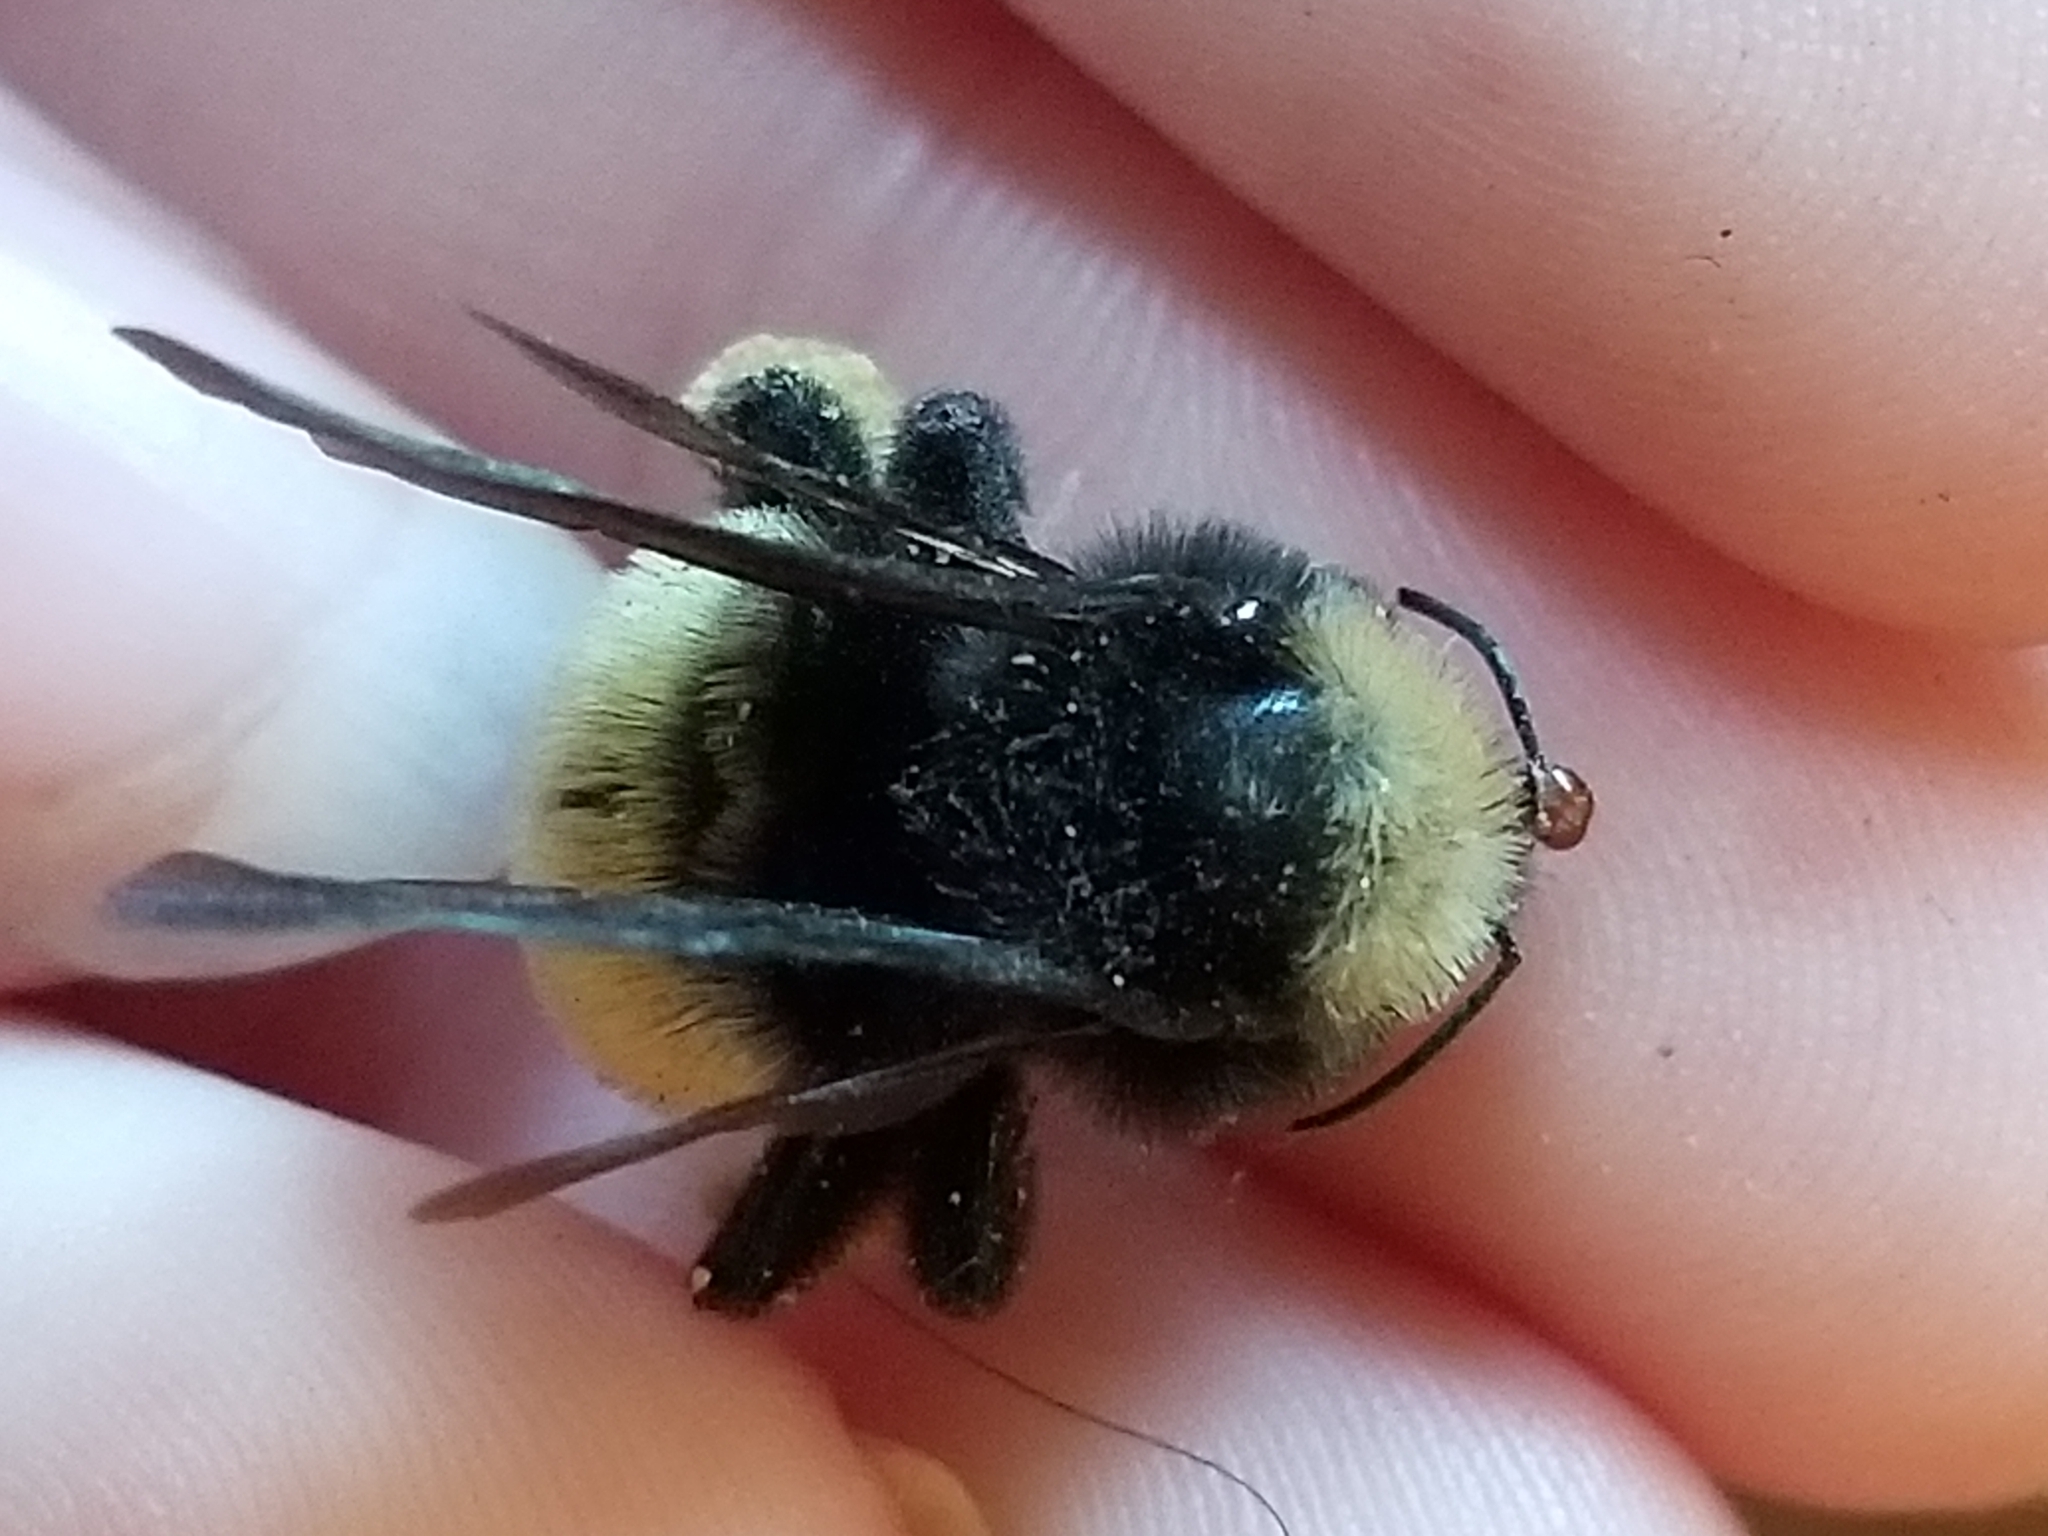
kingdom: Animalia
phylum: Arthropoda
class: Insecta
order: Hymenoptera
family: Apidae
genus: Bombus
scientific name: Bombus pensylvanicus
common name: Bumble bee
